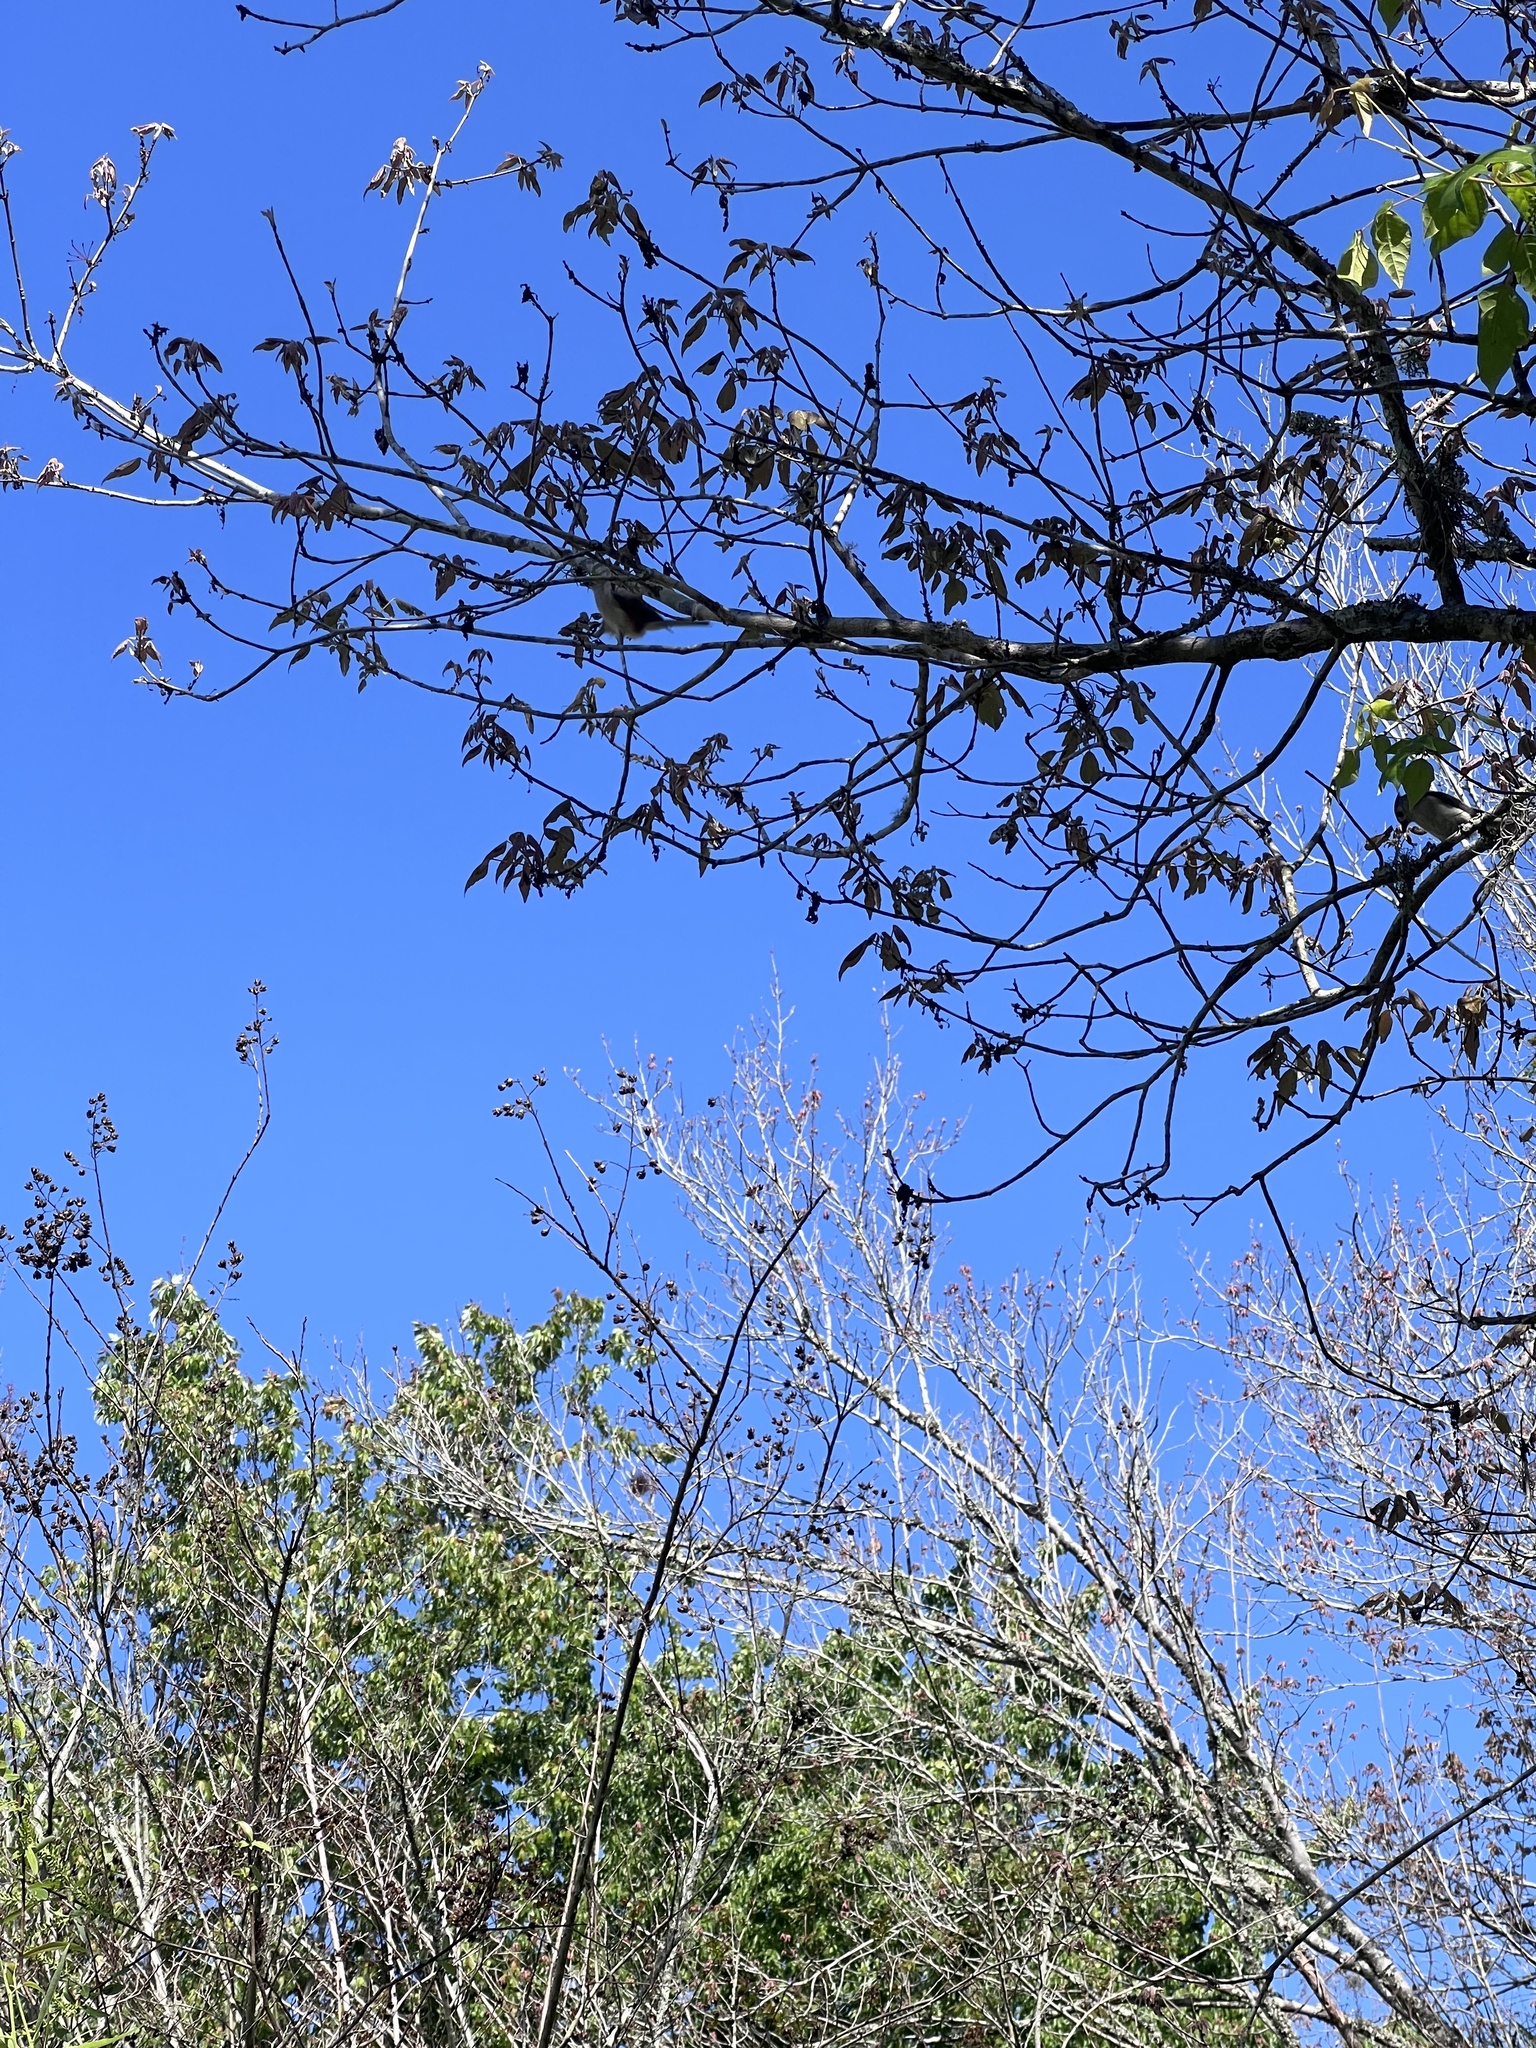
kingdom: Animalia
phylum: Chordata
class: Aves
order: Passeriformes
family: Paridae
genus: Baeolophus
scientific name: Baeolophus bicolor
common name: Tufted titmouse
